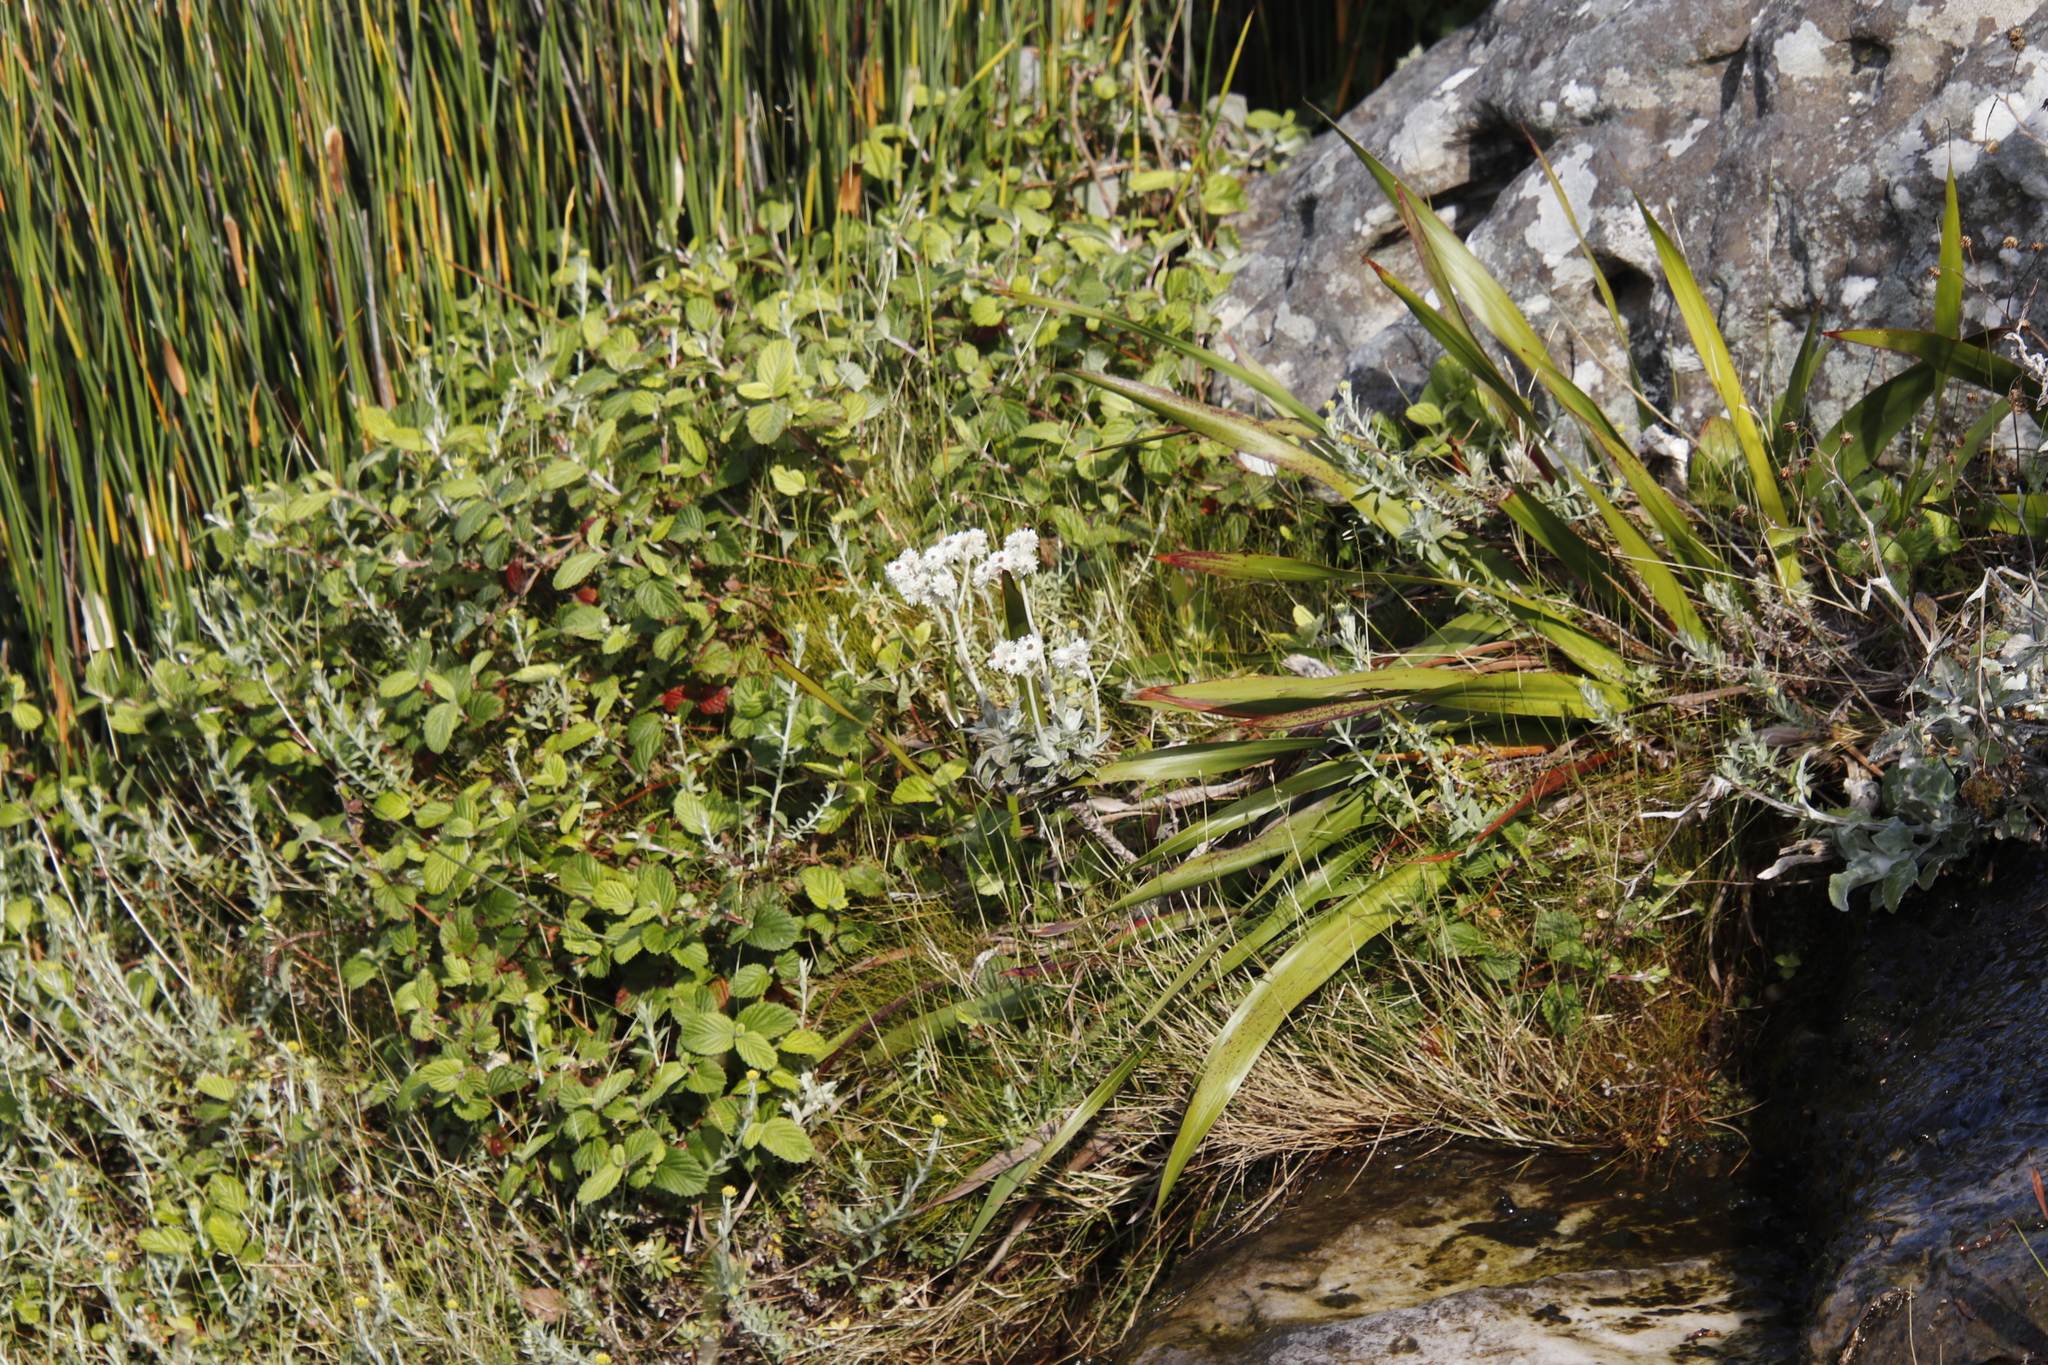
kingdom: Plantae
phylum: Tracheophyta
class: Magnoliopsida
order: Rosales
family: Rosaceae
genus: Cliffortia
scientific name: Cliffortia odorata
